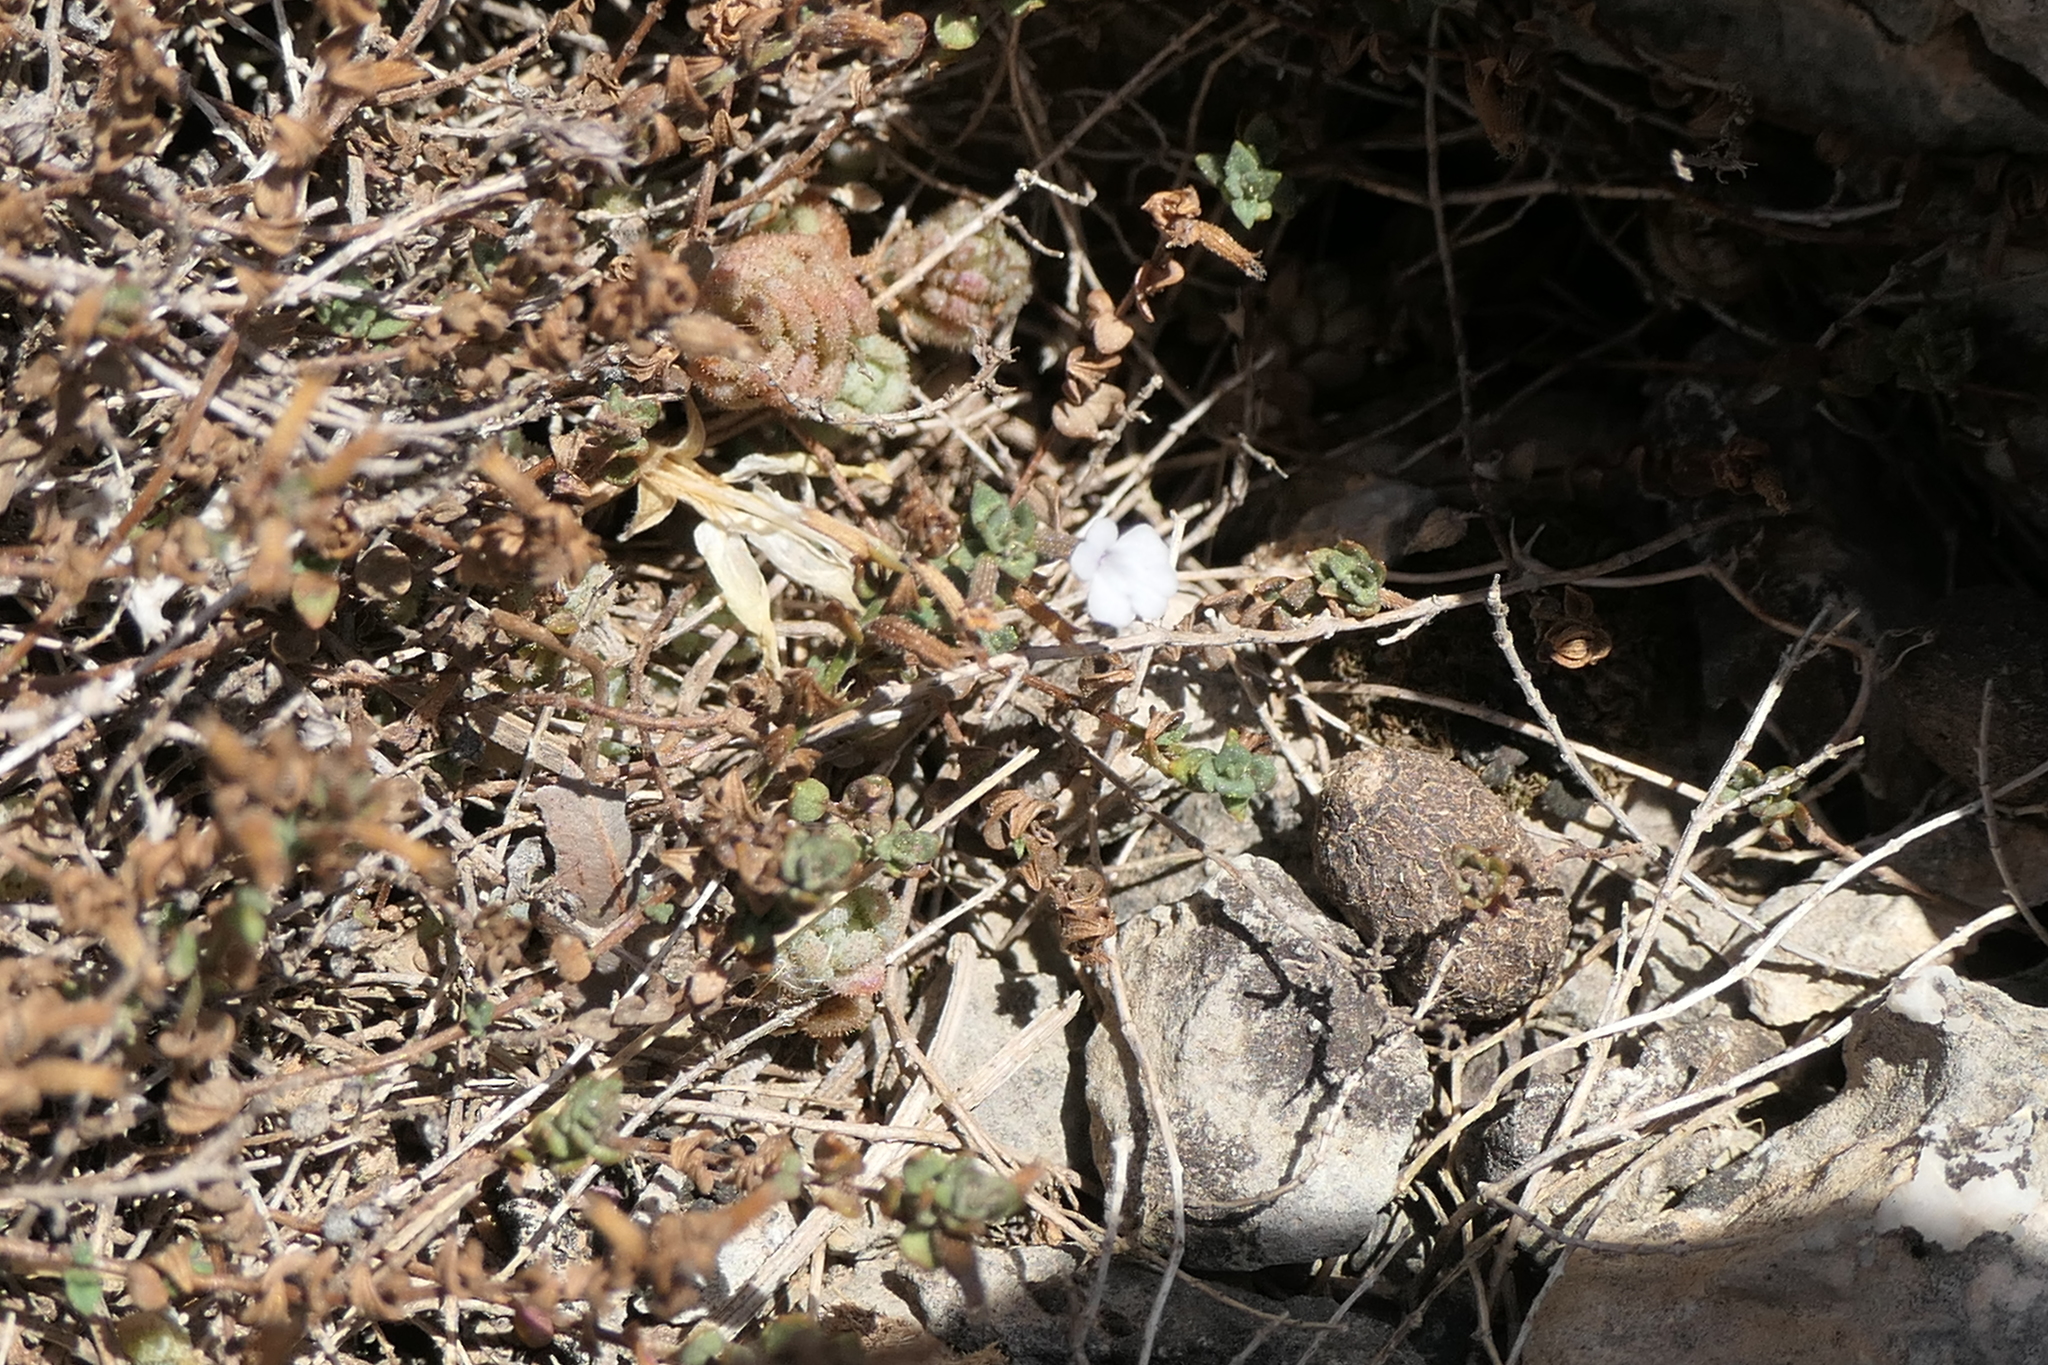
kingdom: Plantae
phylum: Tracheophyta
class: Magnoliopsida
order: Lamiales
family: Lamiaceae
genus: Micromeria
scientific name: Micromeria filiformis
